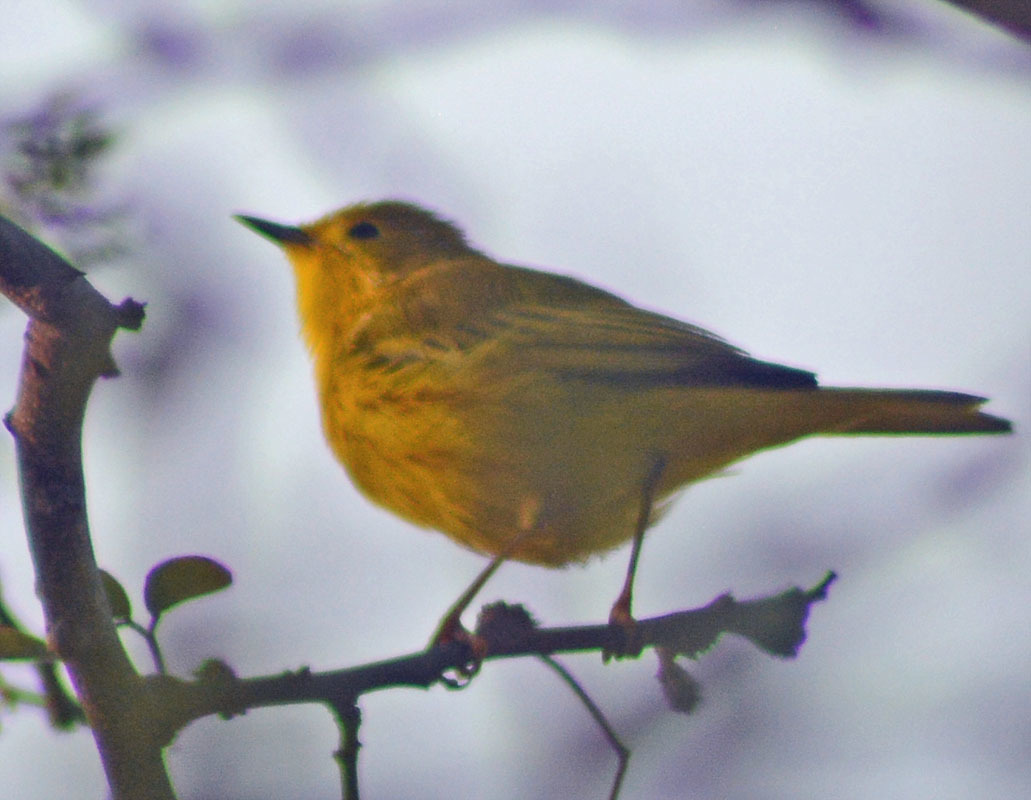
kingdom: Animalia
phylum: Chordata
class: Aves
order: Passeriformes
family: Parulidae
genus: Setophaga
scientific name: Setophaga petechia
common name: Yellow warbler
